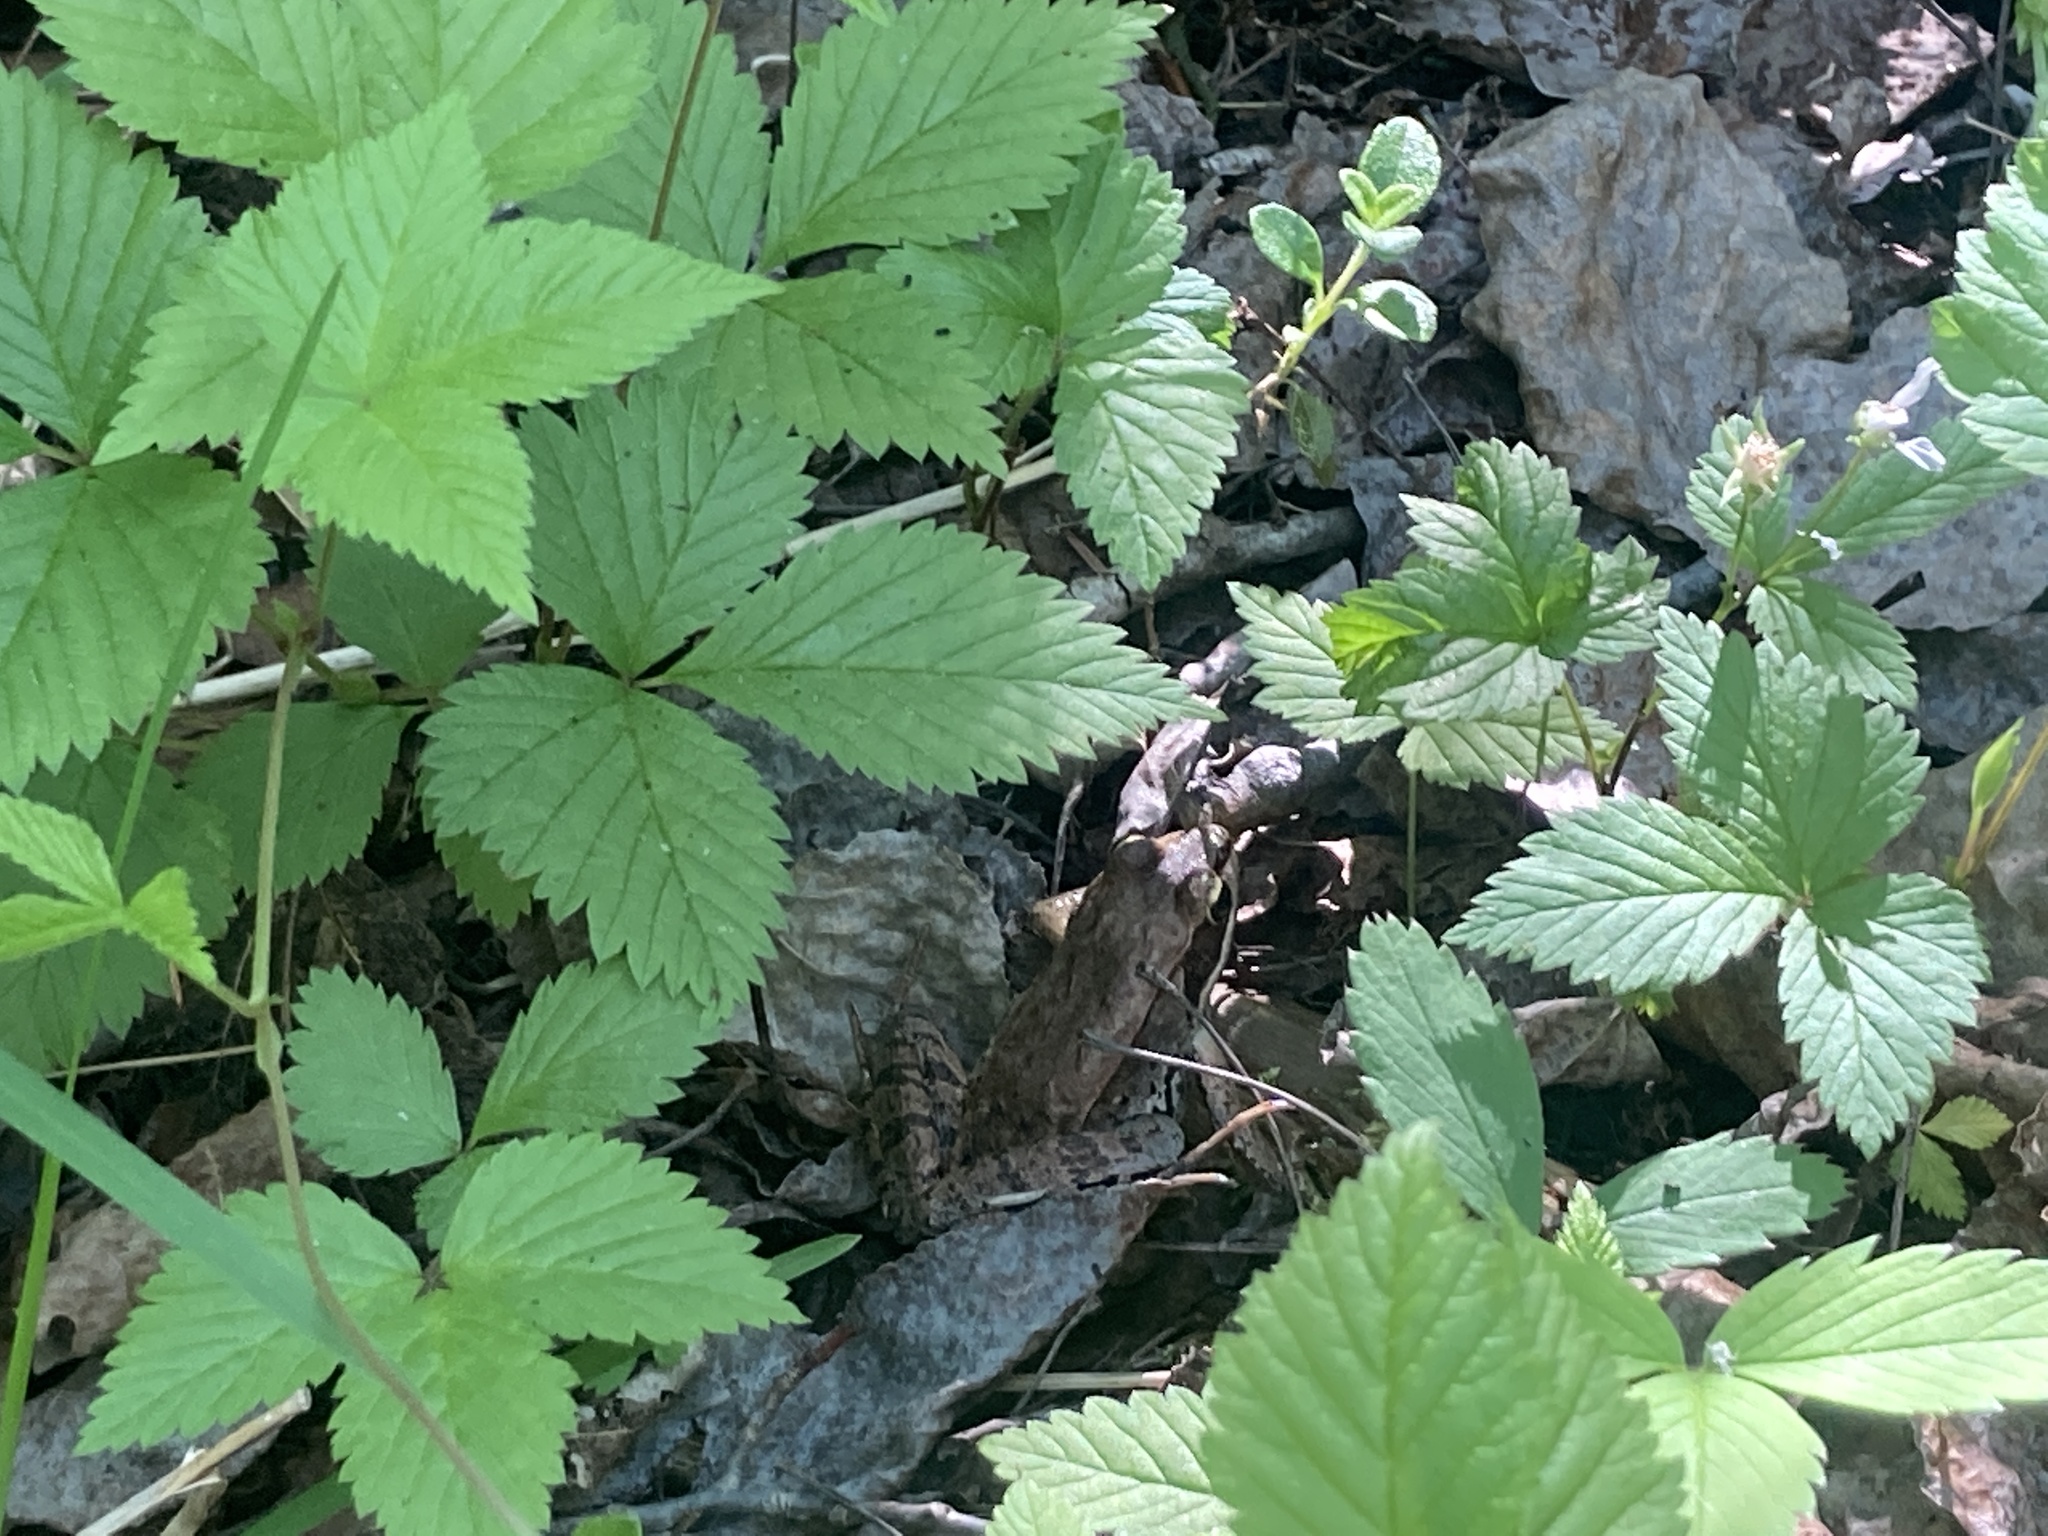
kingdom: Animalia
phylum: Chordata
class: Amphibia
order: Anura
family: Ranidae
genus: Lithobates
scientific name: Lithobates sylvaticus
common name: Wood frog
